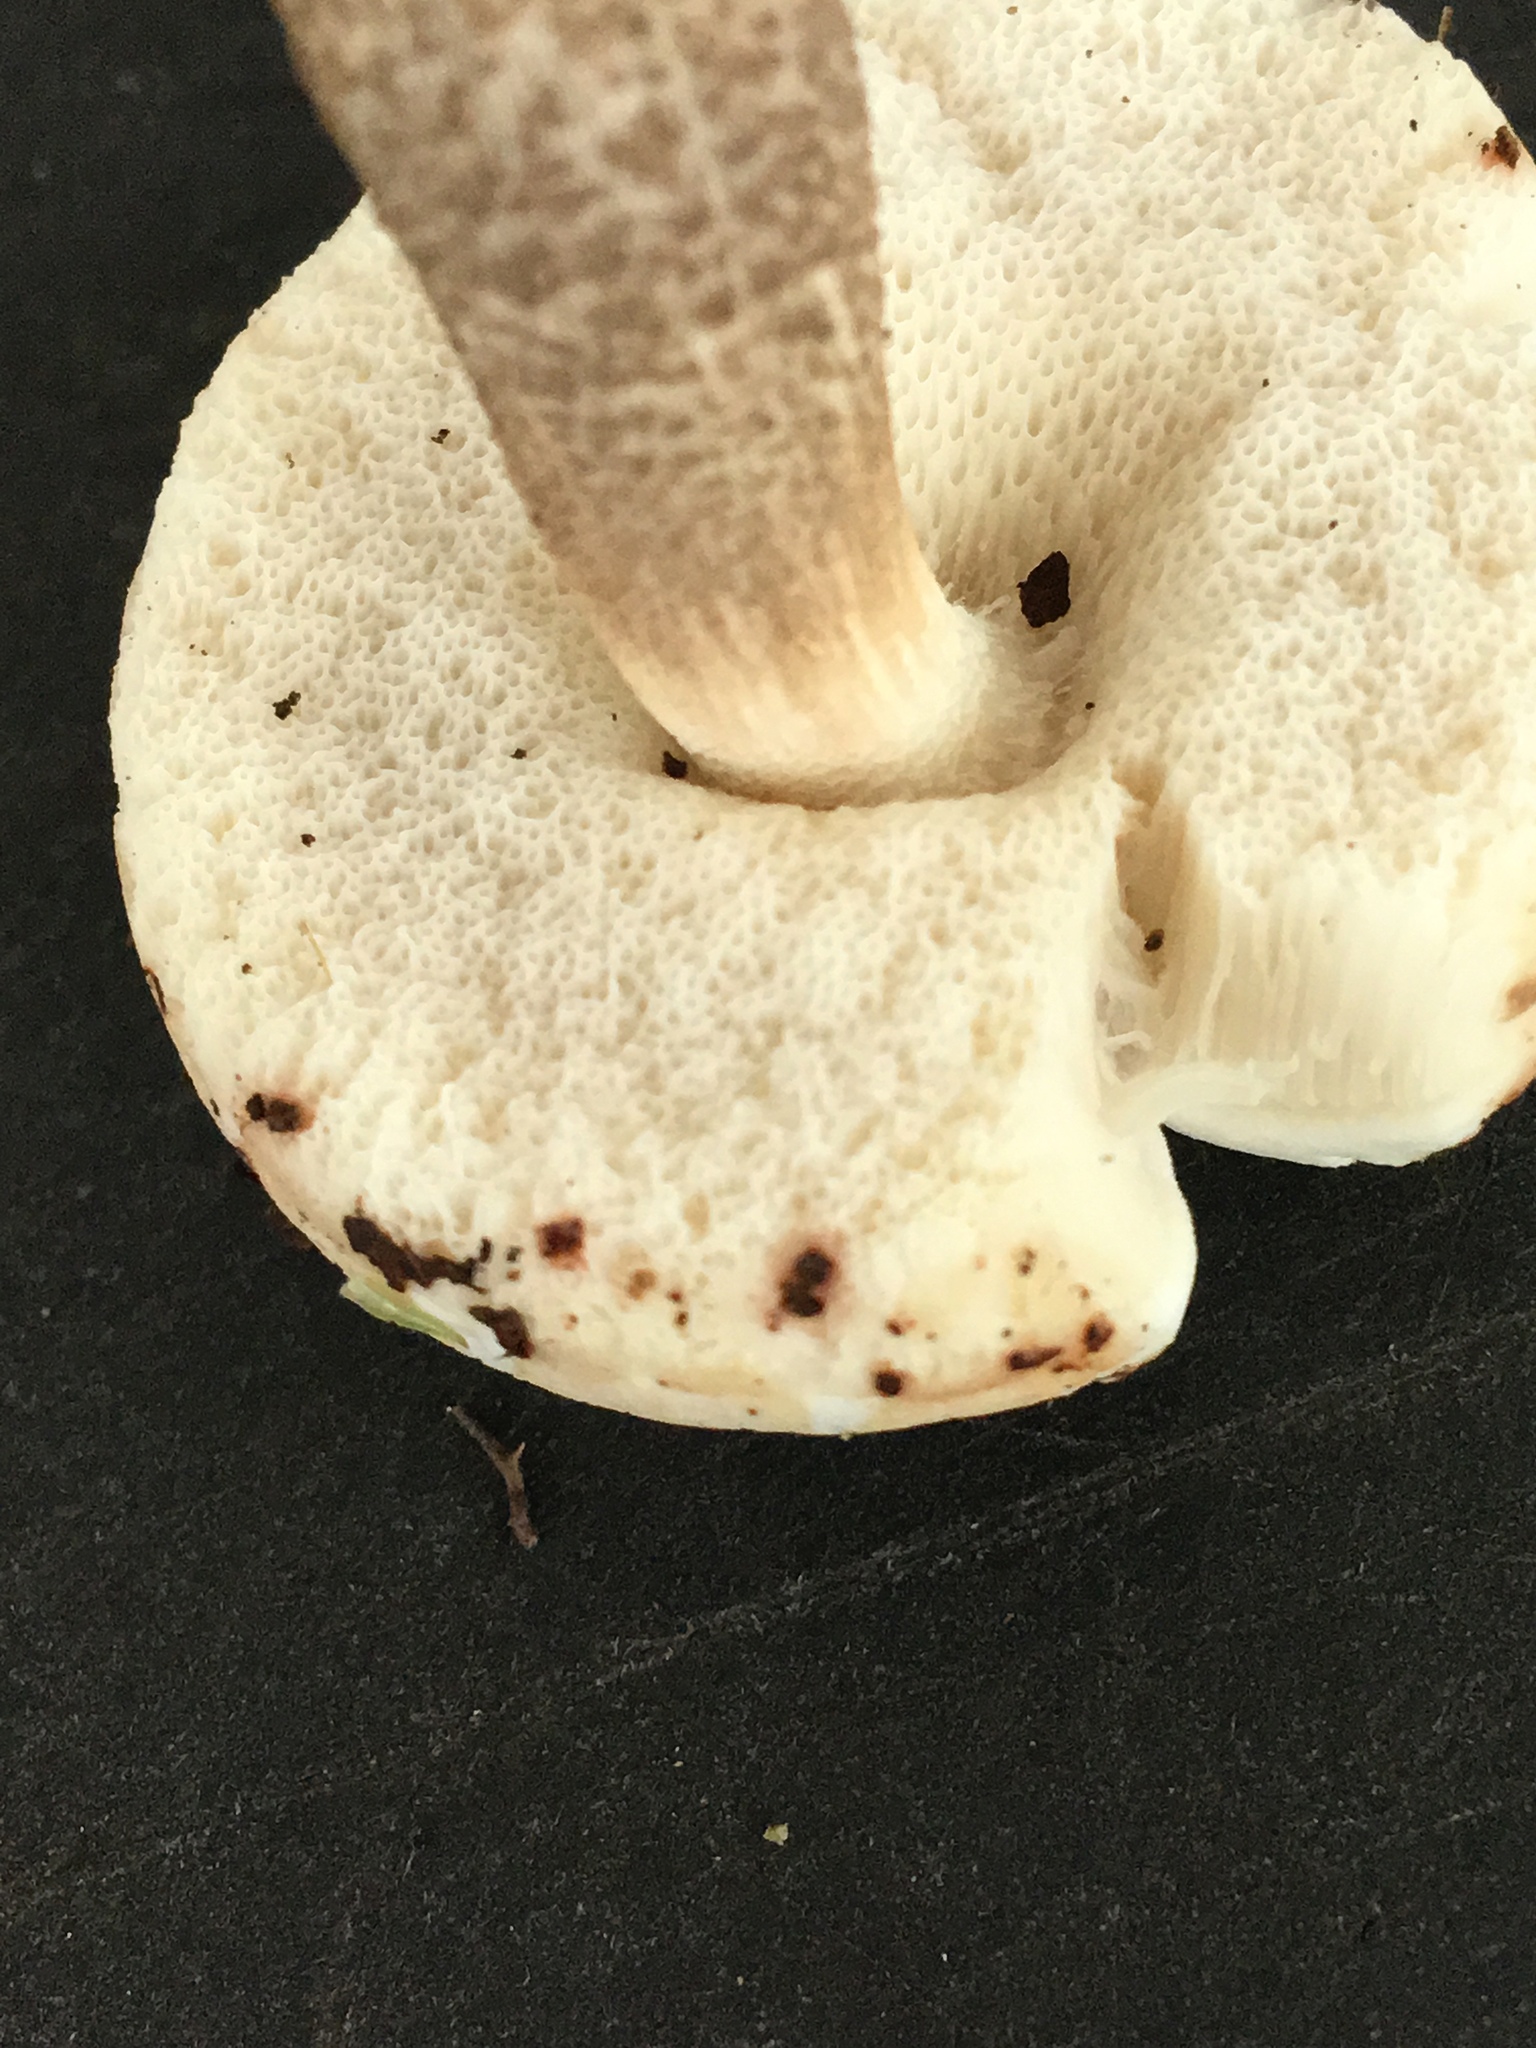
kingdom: Fungi
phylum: Basidiomycota
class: Agaricomycetes
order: Boletales
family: Boletaceae
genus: Leccinellum
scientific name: Leccinellum albellum
